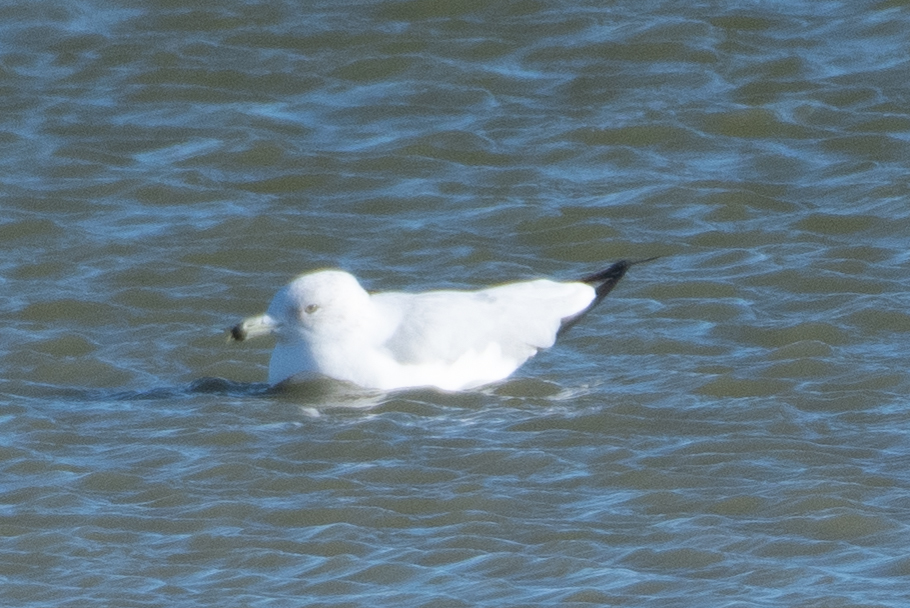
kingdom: Animalia
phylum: Chordata
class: Aves
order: Charadriiformes
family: Laridae
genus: Larus
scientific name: Larus delawarensis
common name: Ring-billed gull
